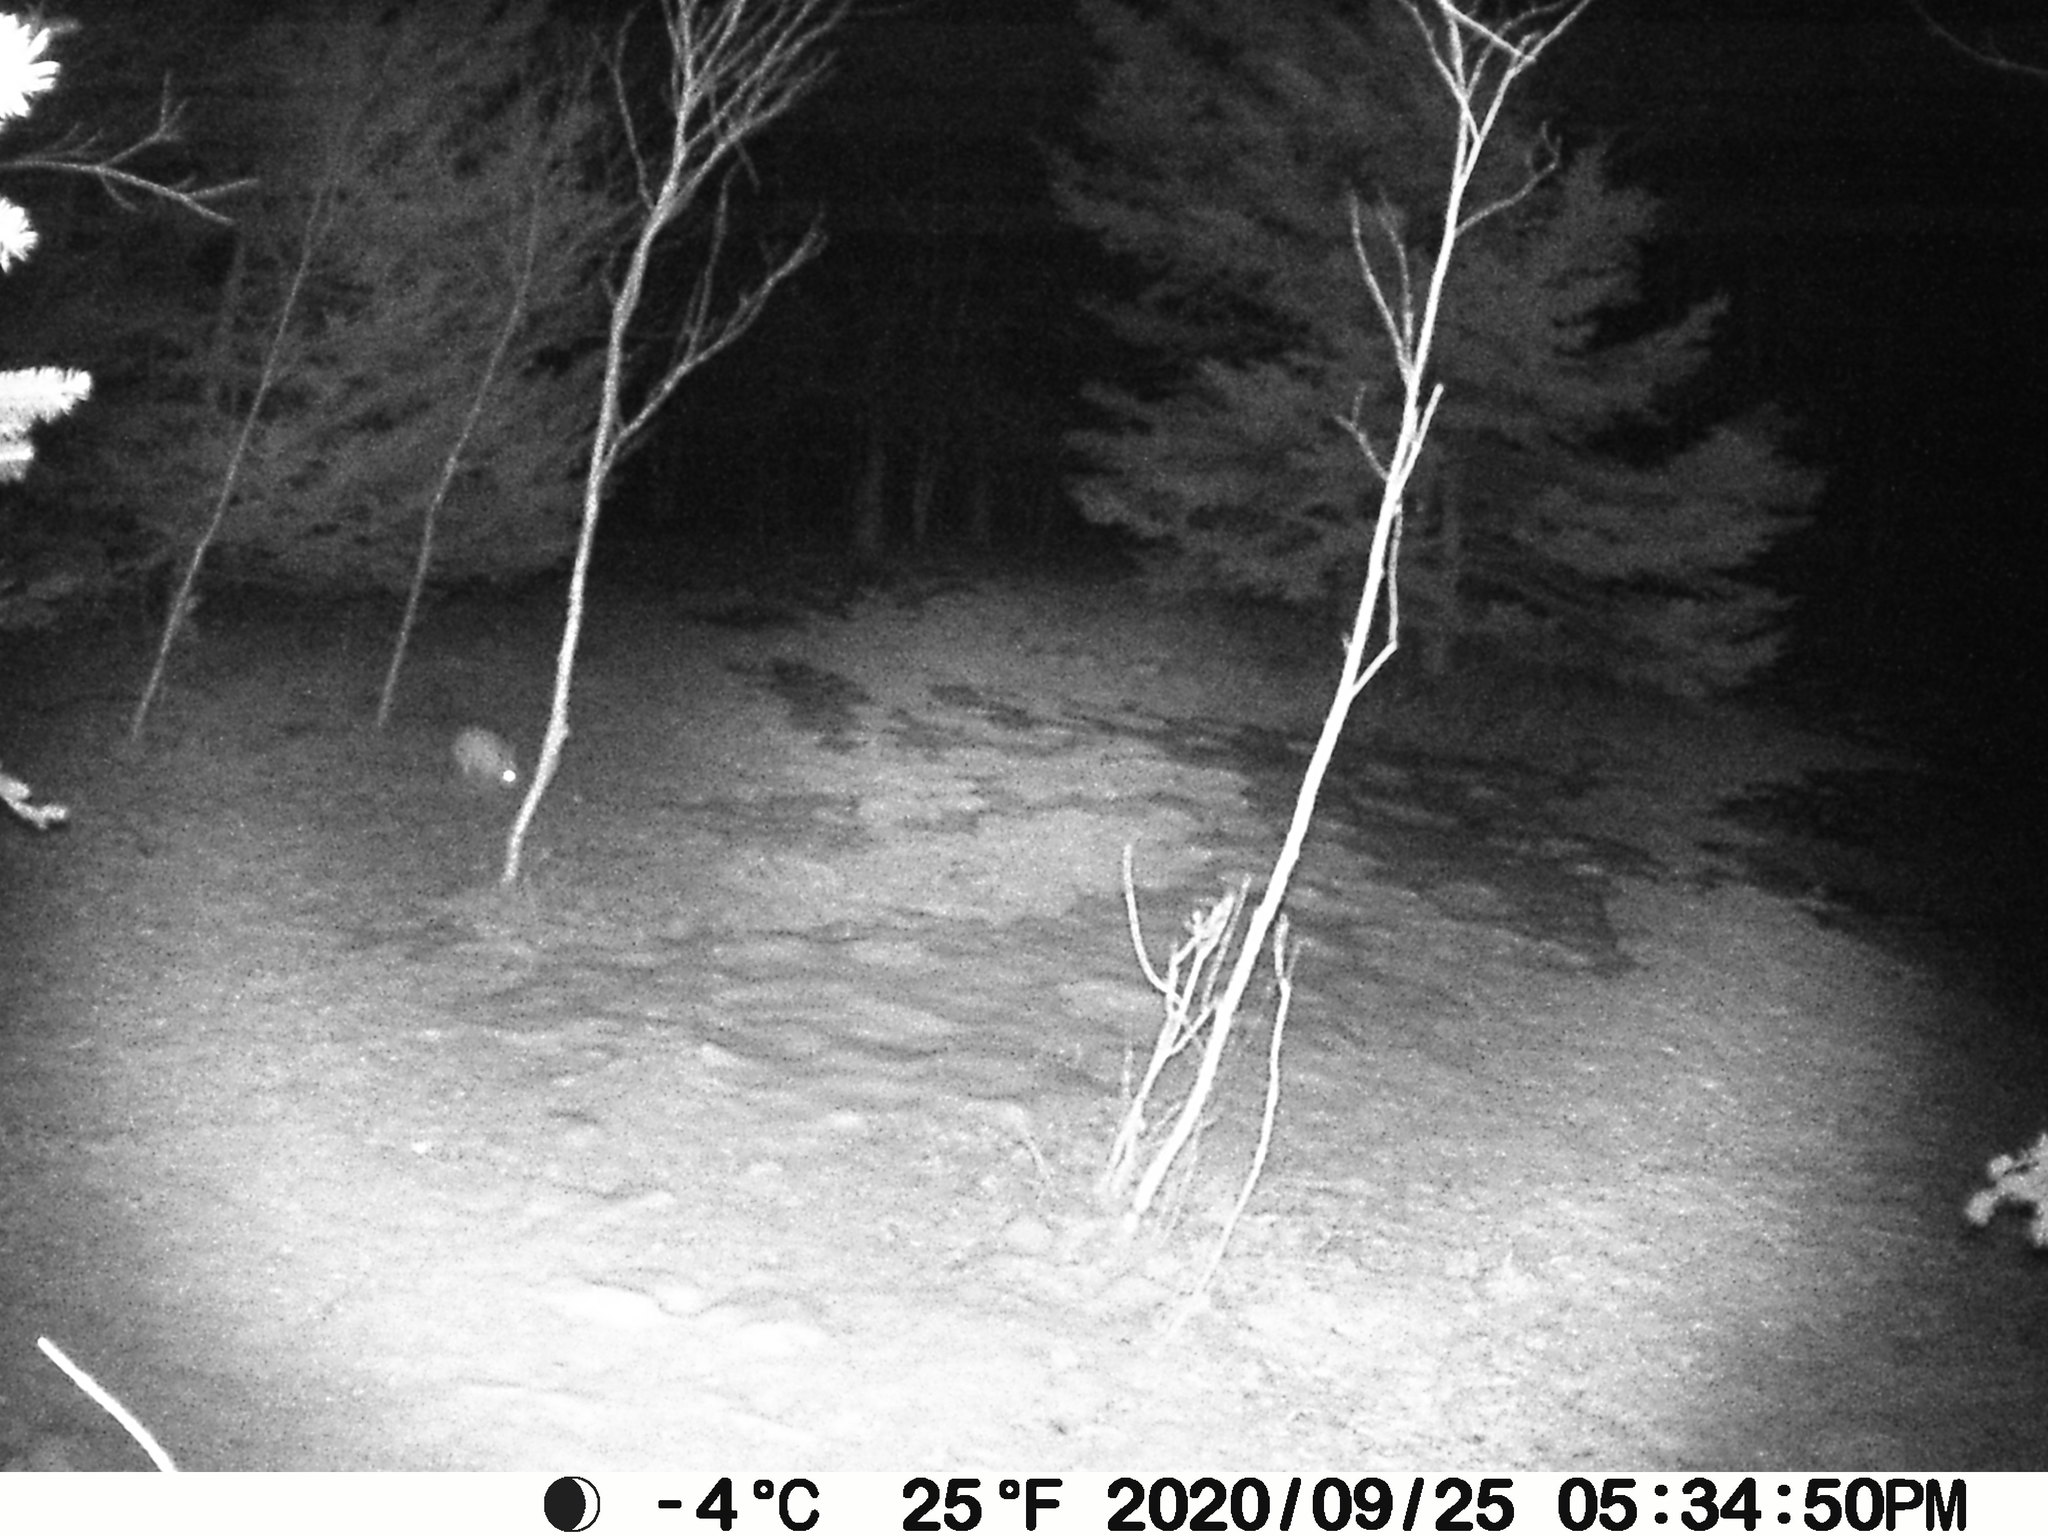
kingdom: Animalia
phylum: Chordata
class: Mammalia
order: Lagomorpha
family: Leporidae
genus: Lepus
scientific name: Lepus americanus
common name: Snowshoe hare
